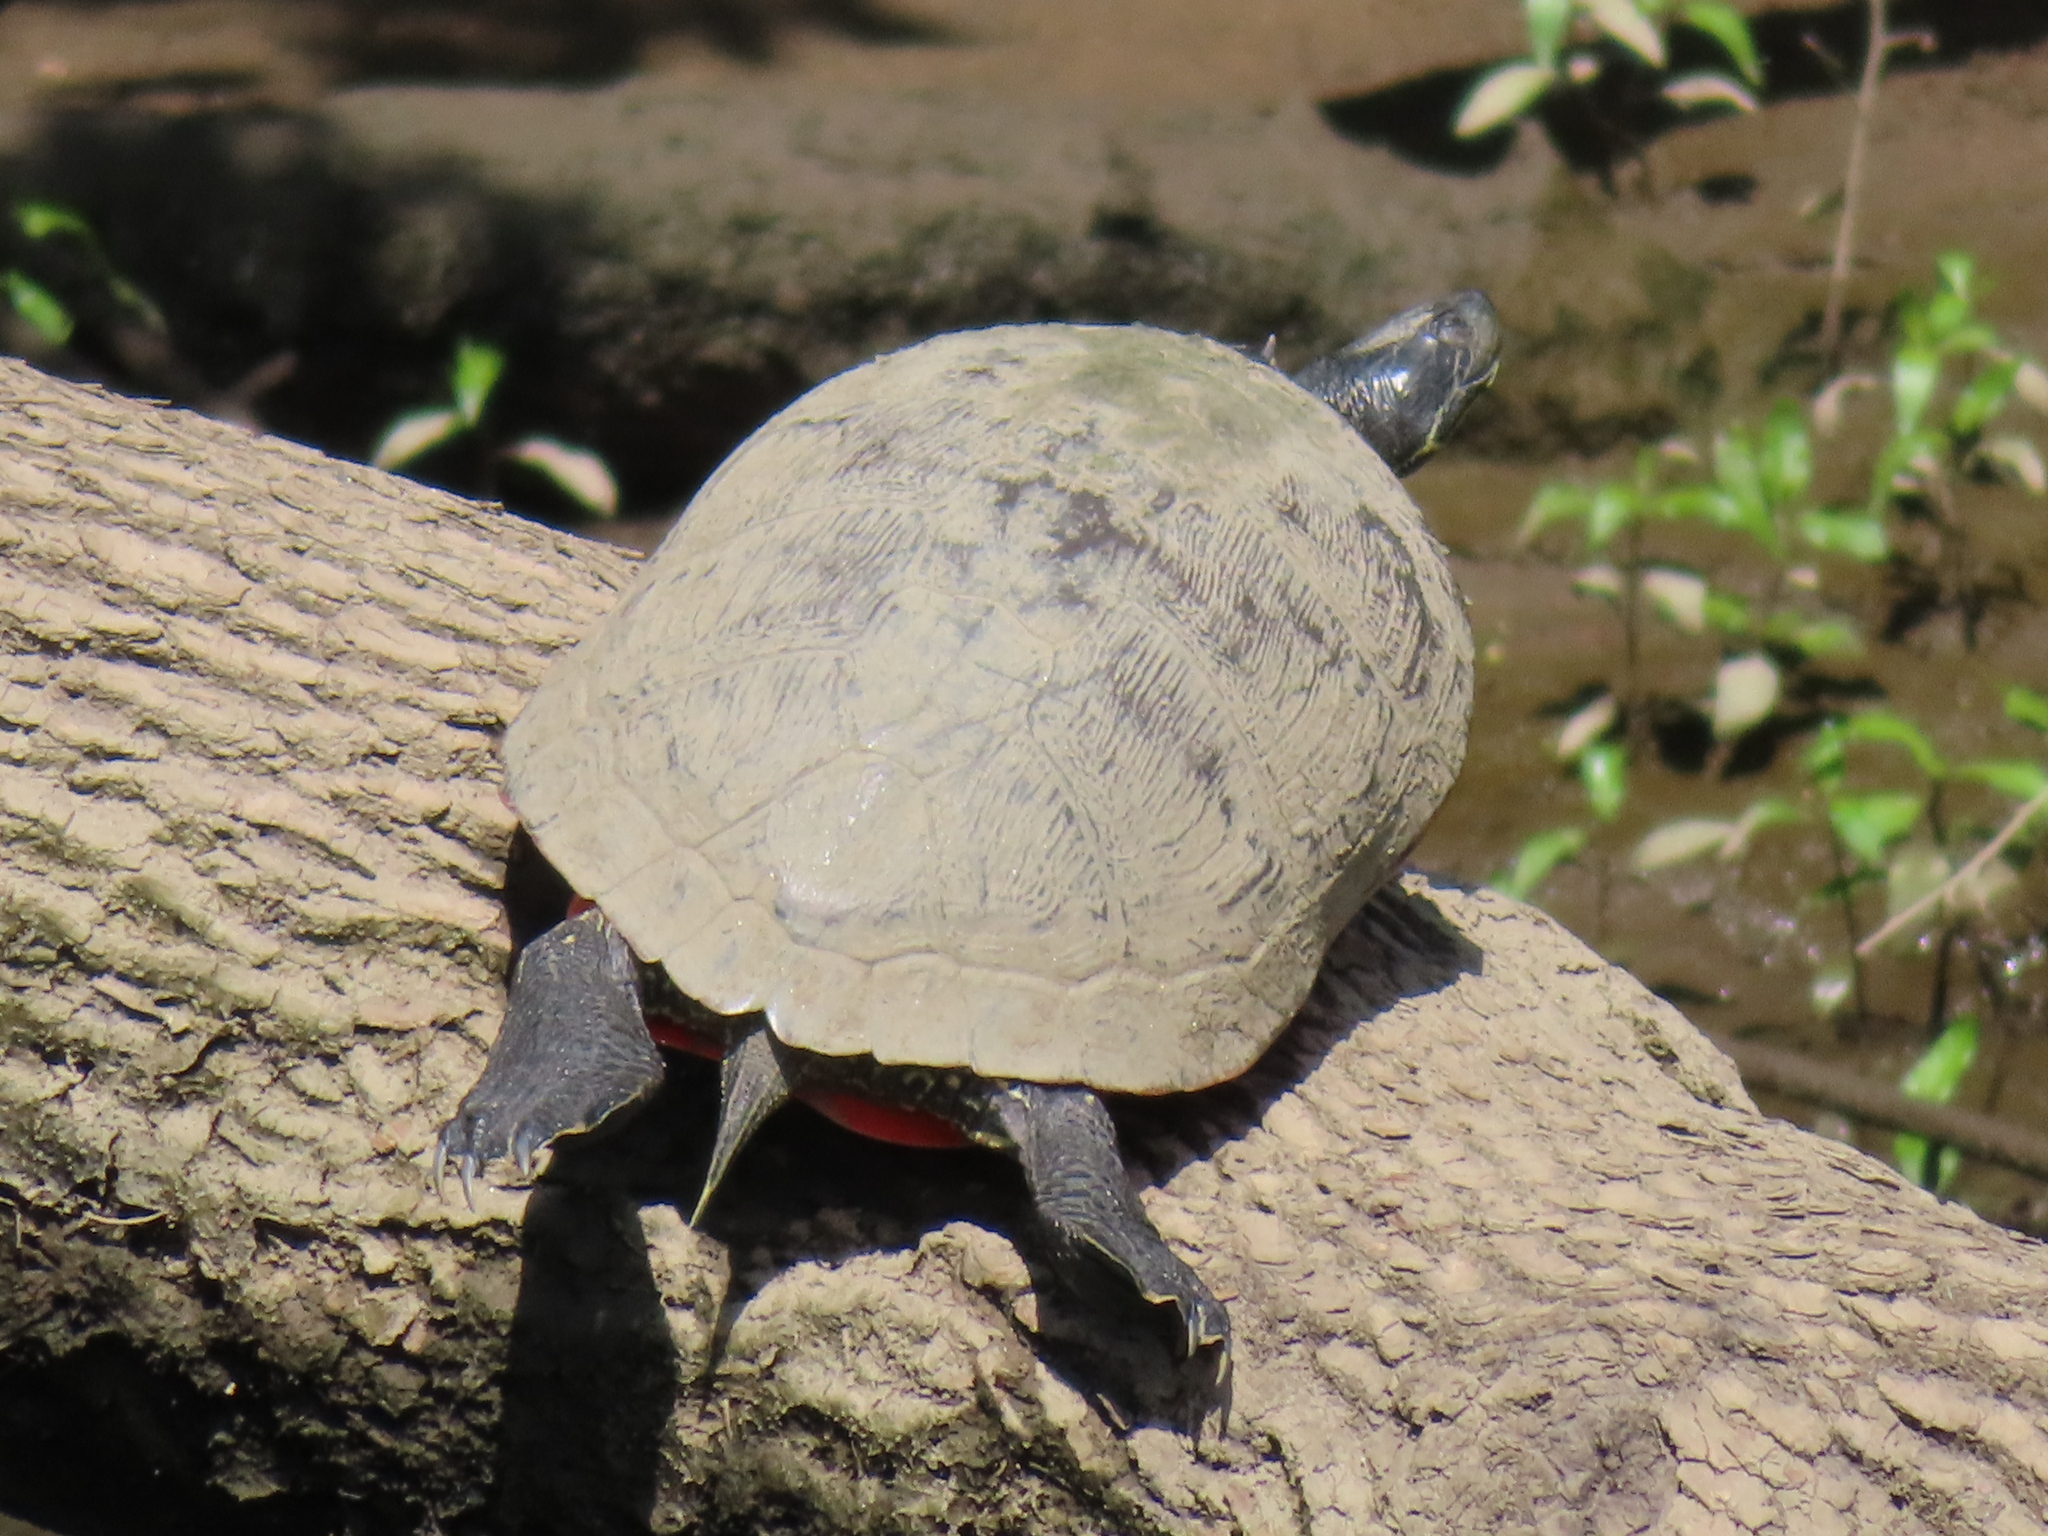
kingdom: Animalia
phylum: Chordata
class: Testudines
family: Emydidae
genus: Pseudemys
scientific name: Pseudemys rubriventris
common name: American red-bellied turtle
